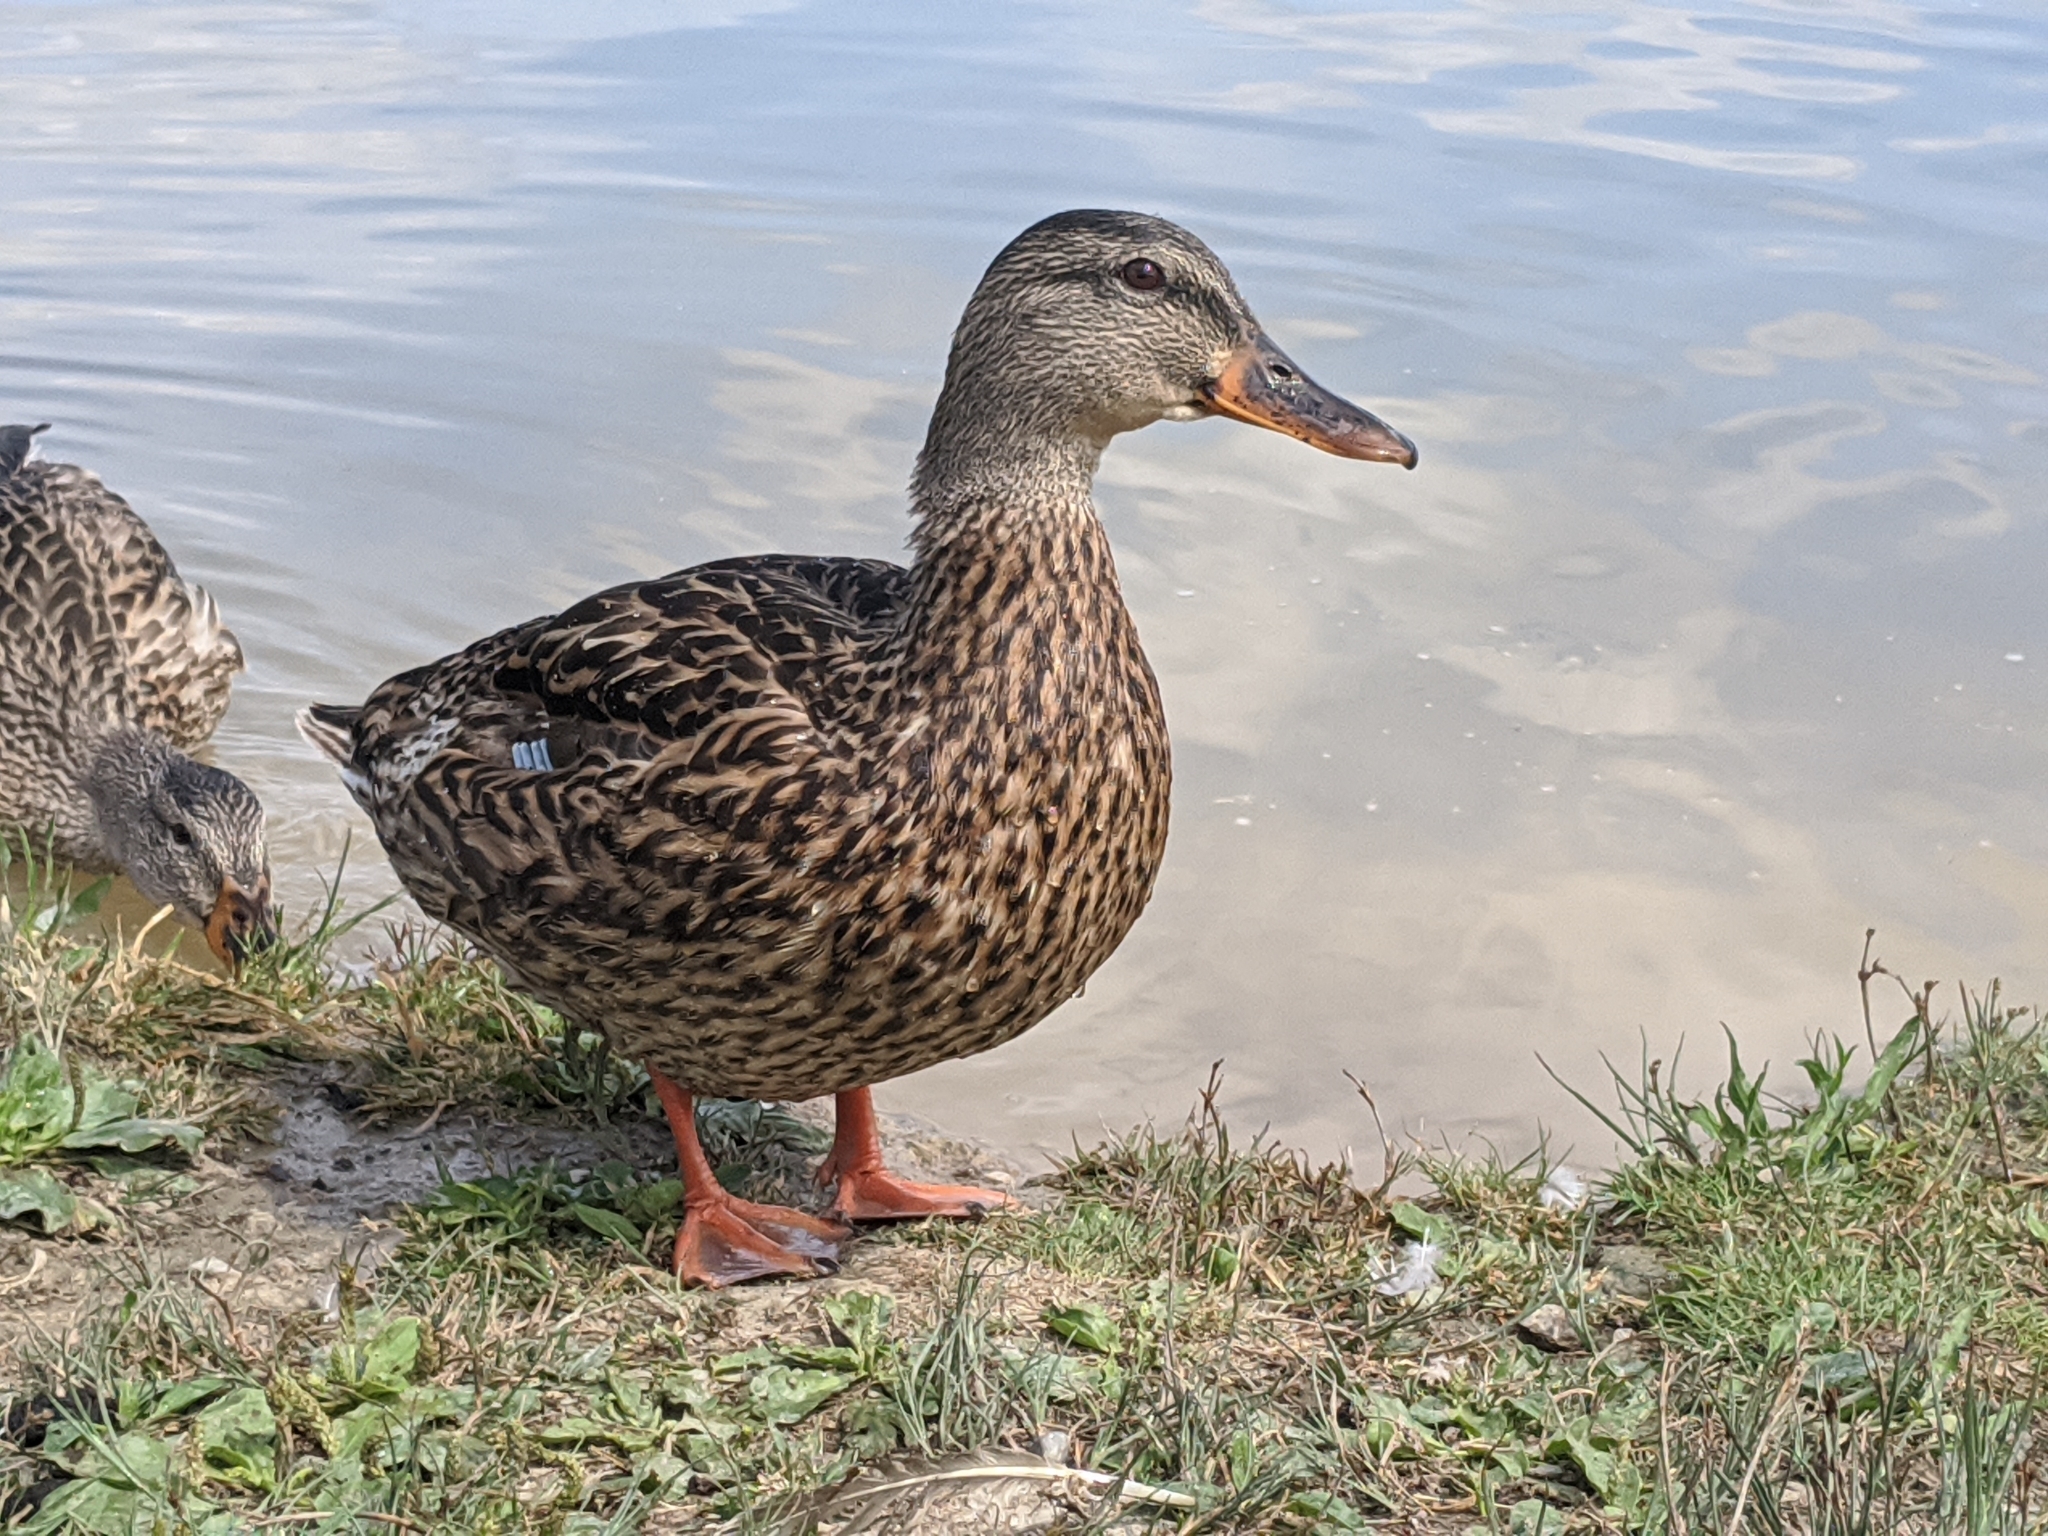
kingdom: Animalia
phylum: Chordata
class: Aves
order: Anseriformes
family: Anatidae
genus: Anas
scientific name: Anas platyrhynchos
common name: Mallard
